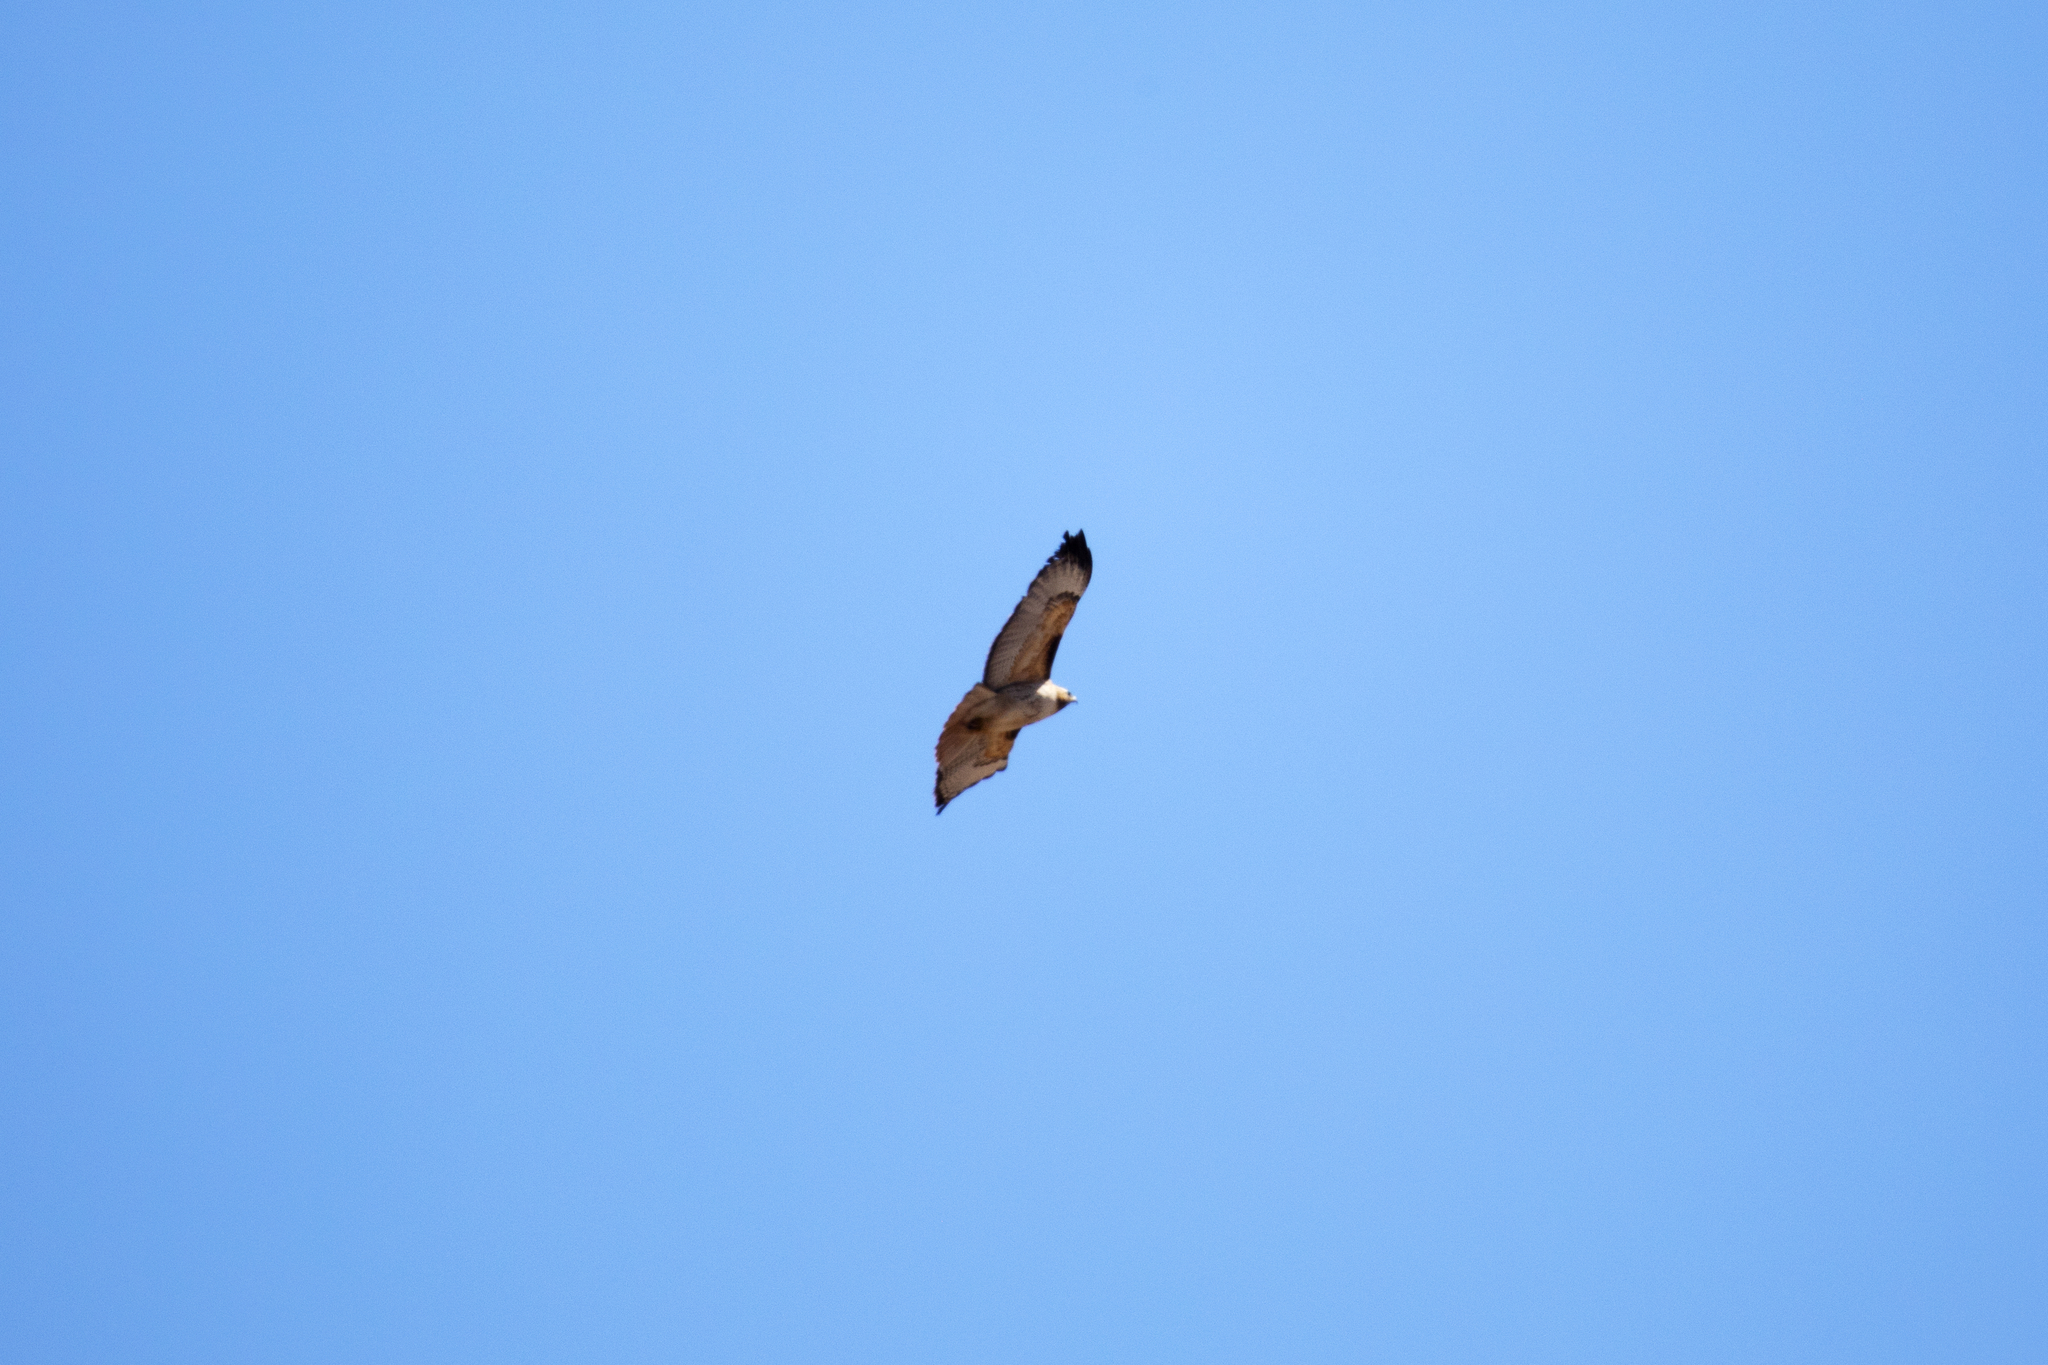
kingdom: Animalia
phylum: Chordata
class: Aves
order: Accipitriformes
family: Accipitridae
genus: Buteo
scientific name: Buteo jamaicensis
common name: Red-tailed hawk
